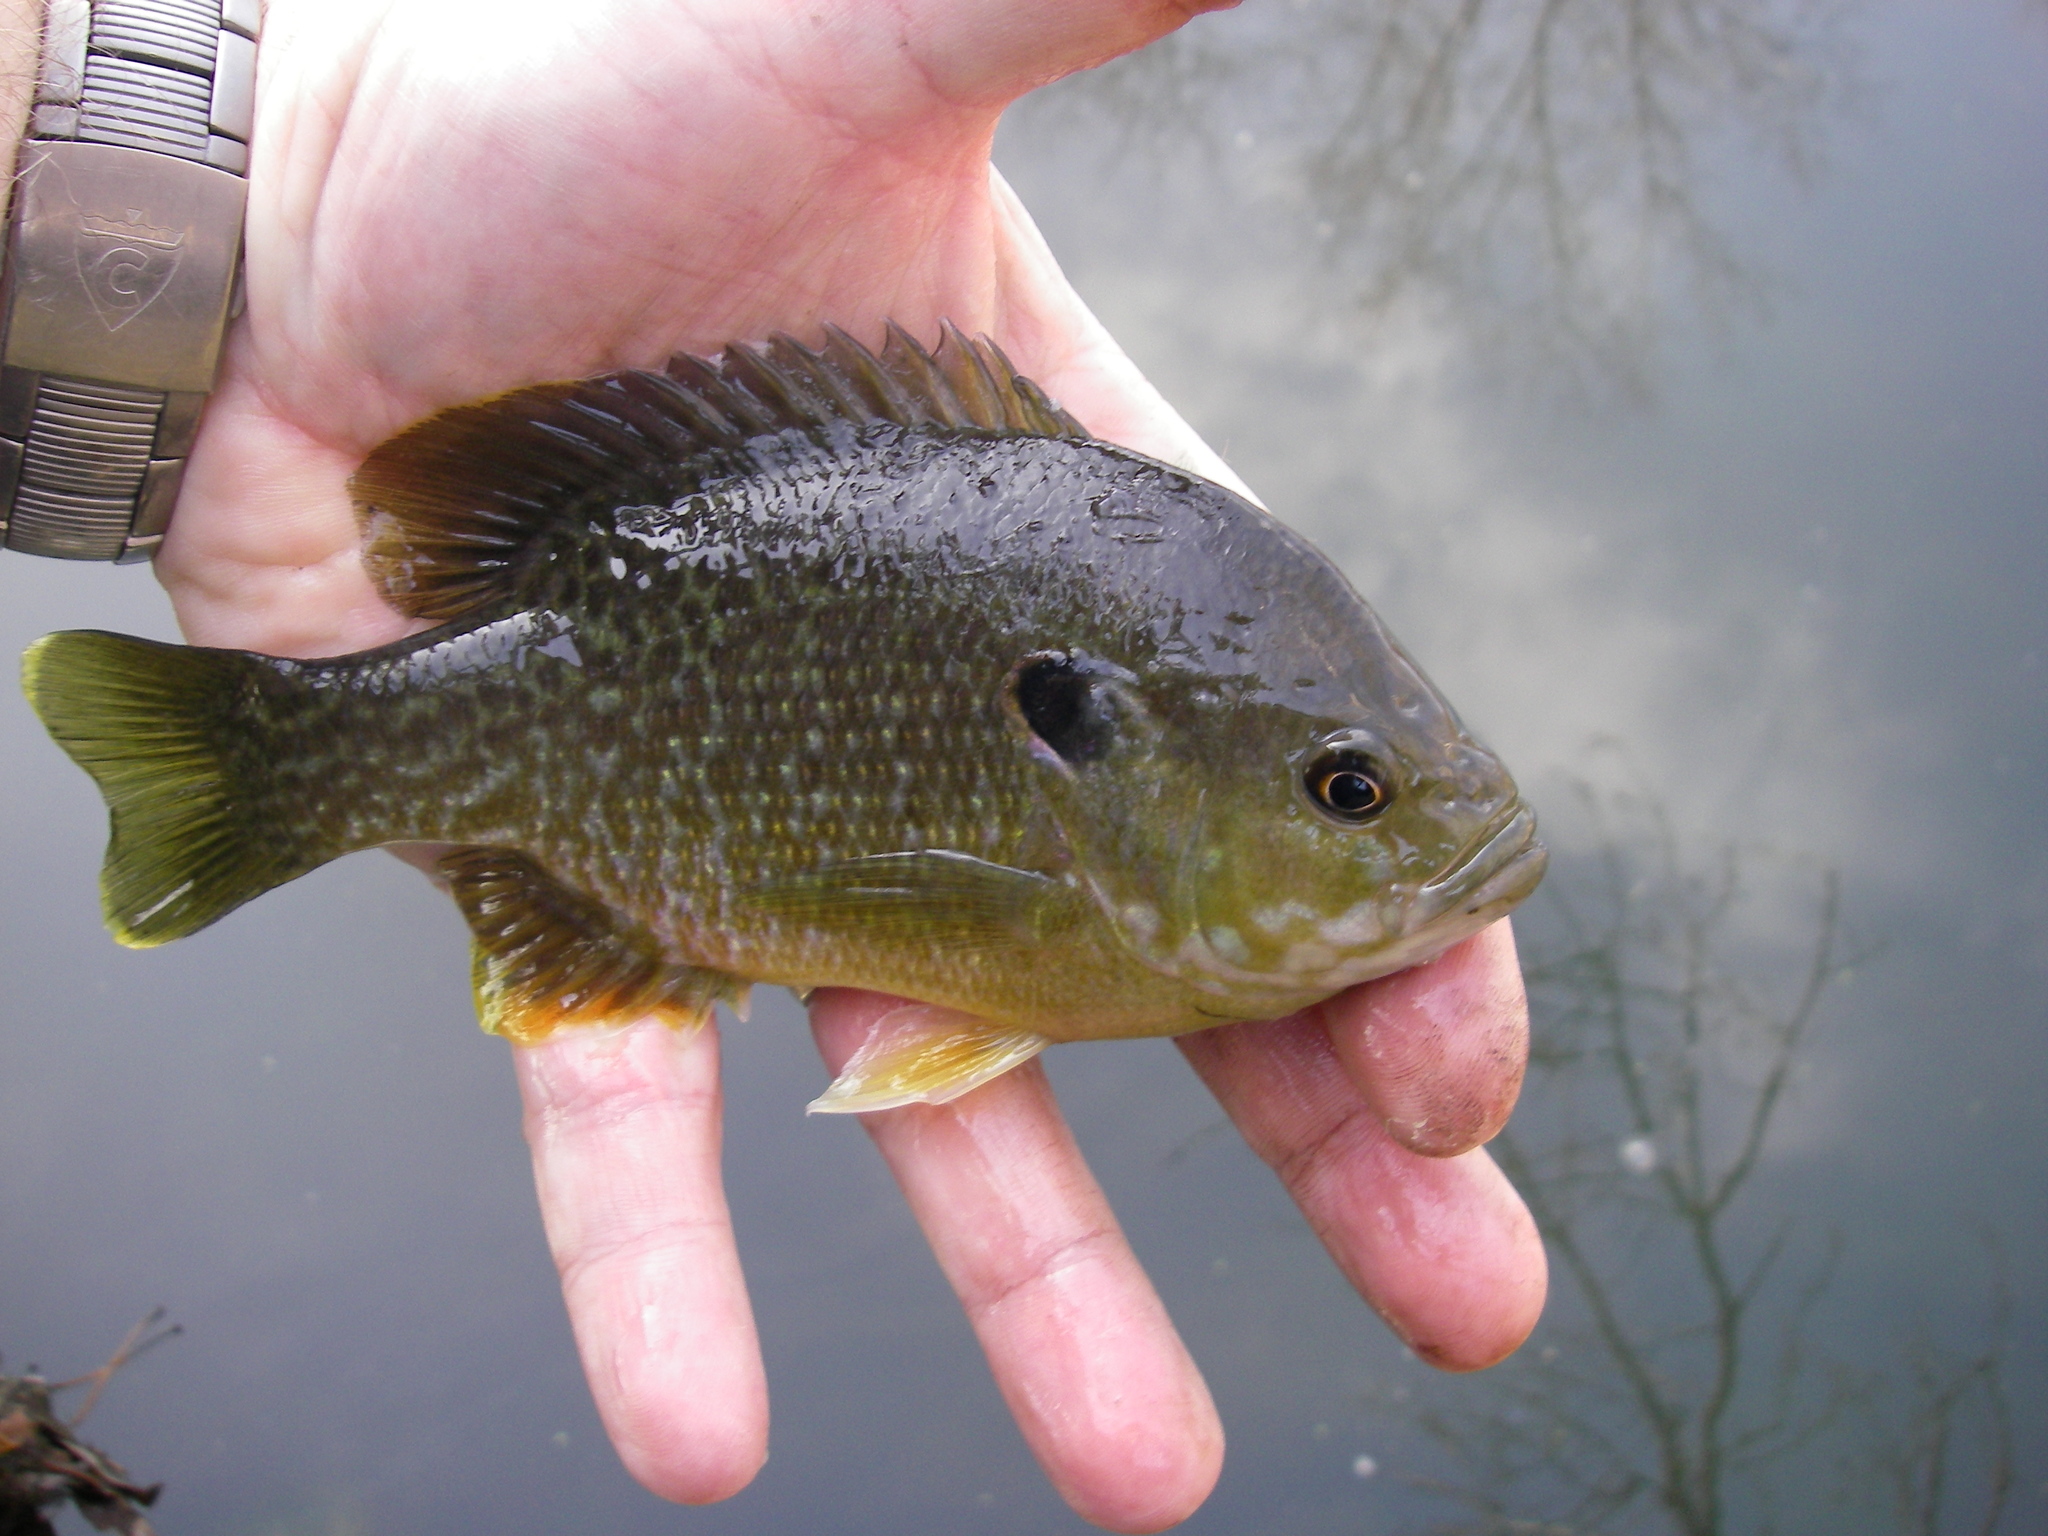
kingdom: Animalia
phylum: Chordata
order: Perciformes
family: Centrarchidae
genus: Lepomis
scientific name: Lepomis
